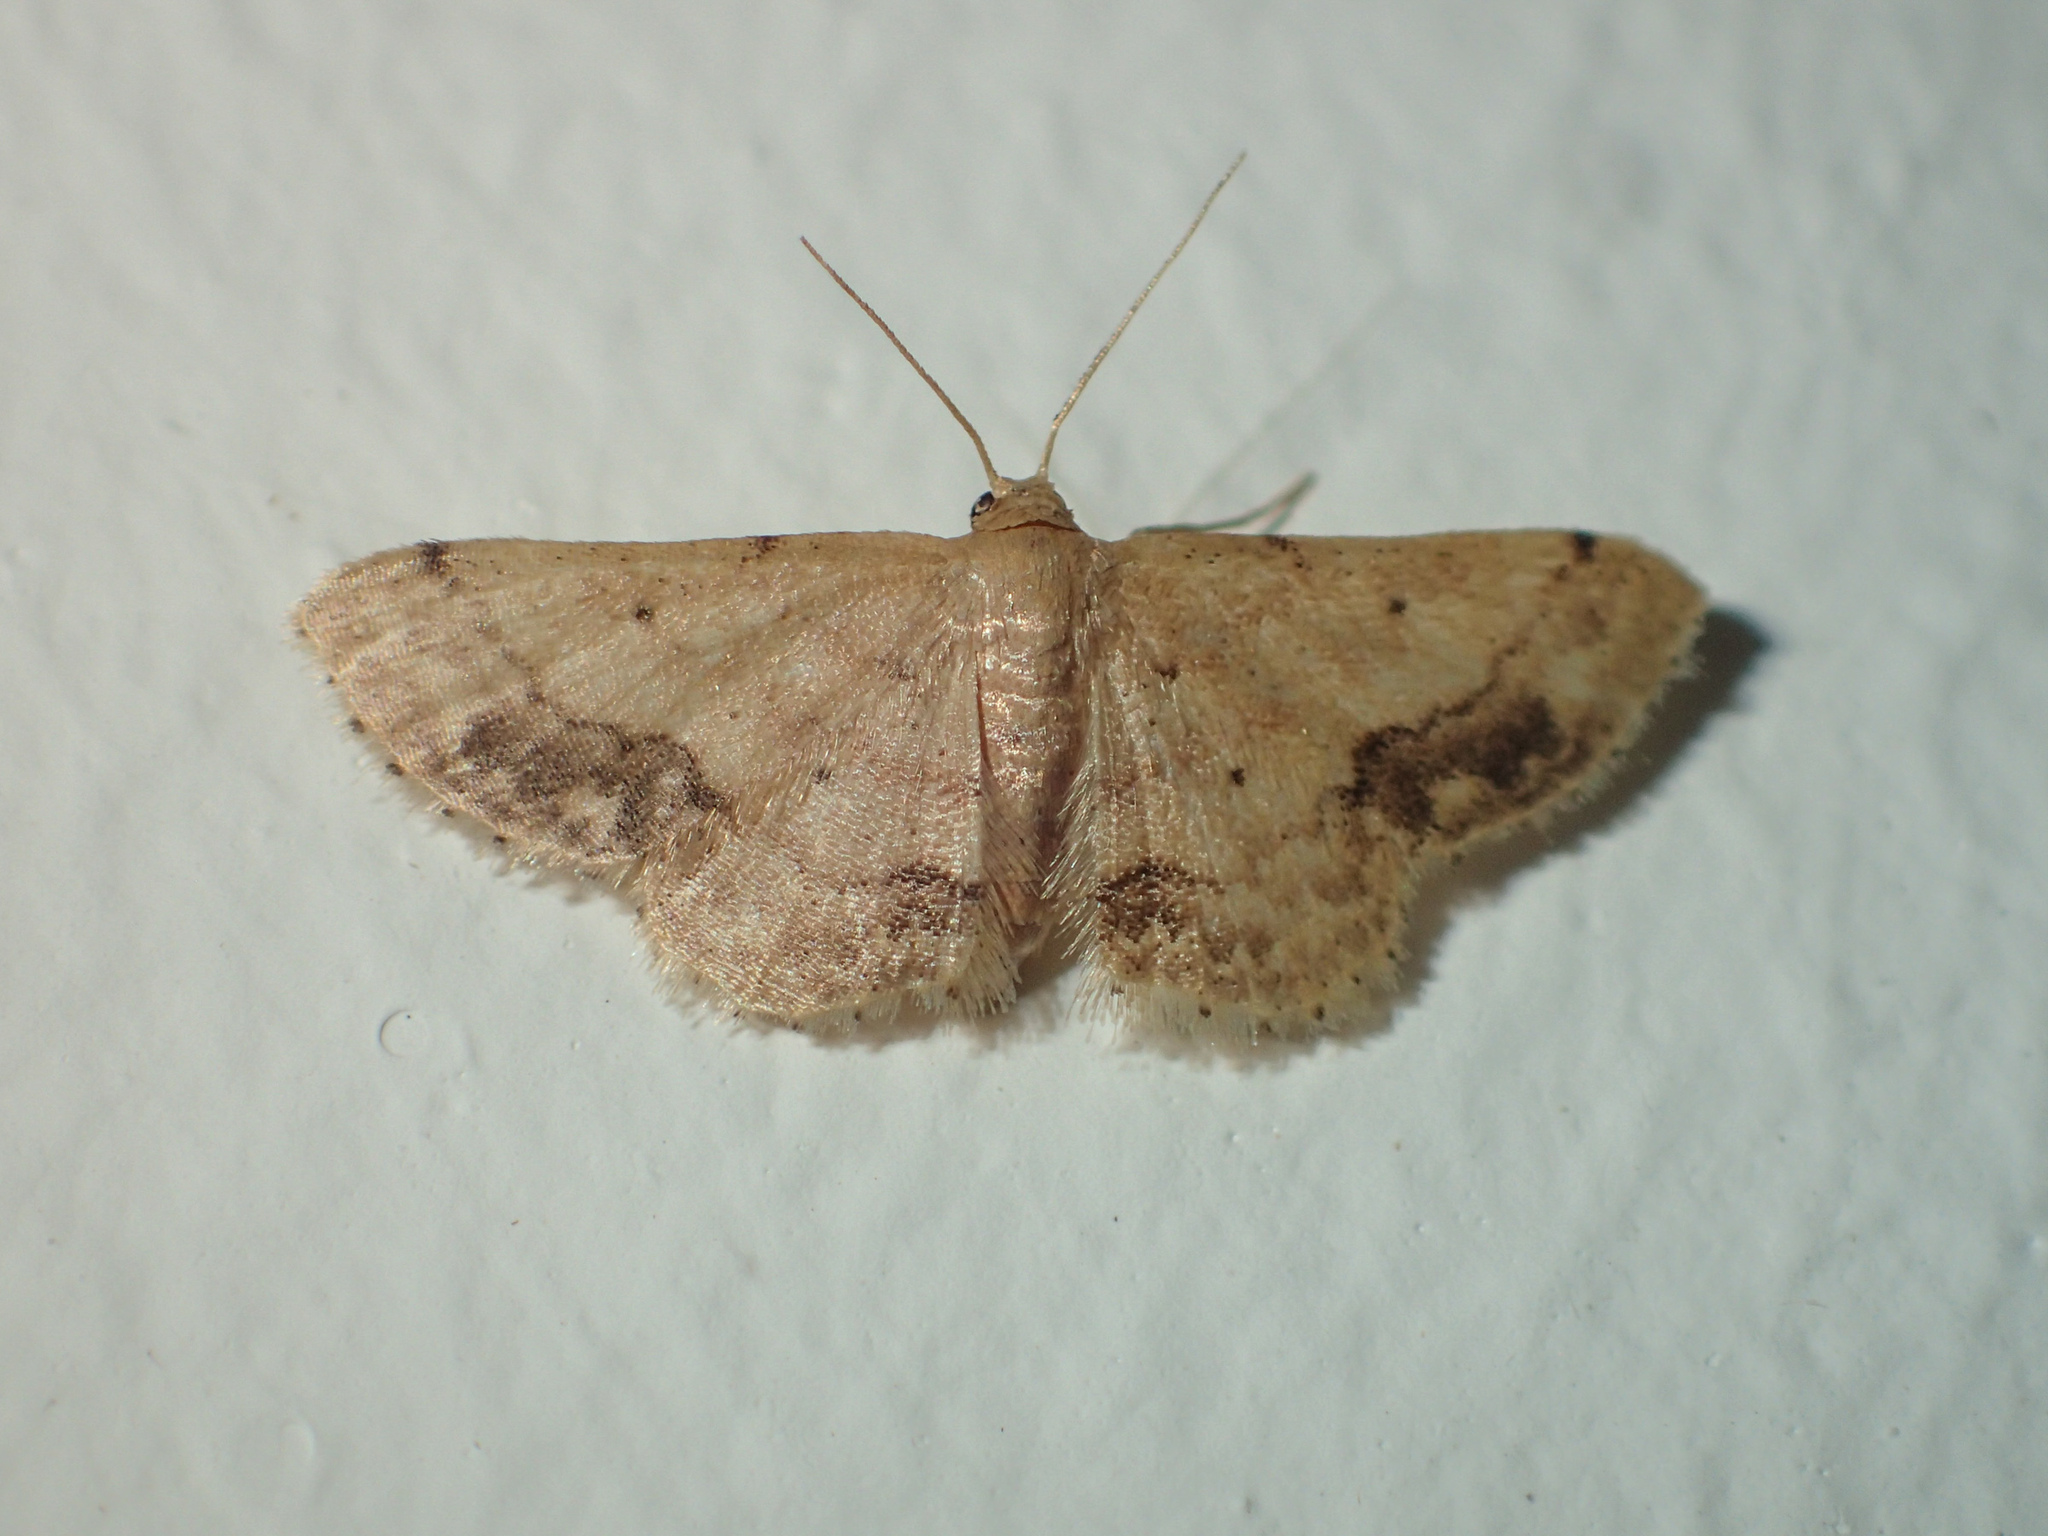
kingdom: Animalia
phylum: Arthropoda
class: Insecta
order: Lepidoptera
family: Geometridae
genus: Idaea
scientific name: Idaea chotaria
